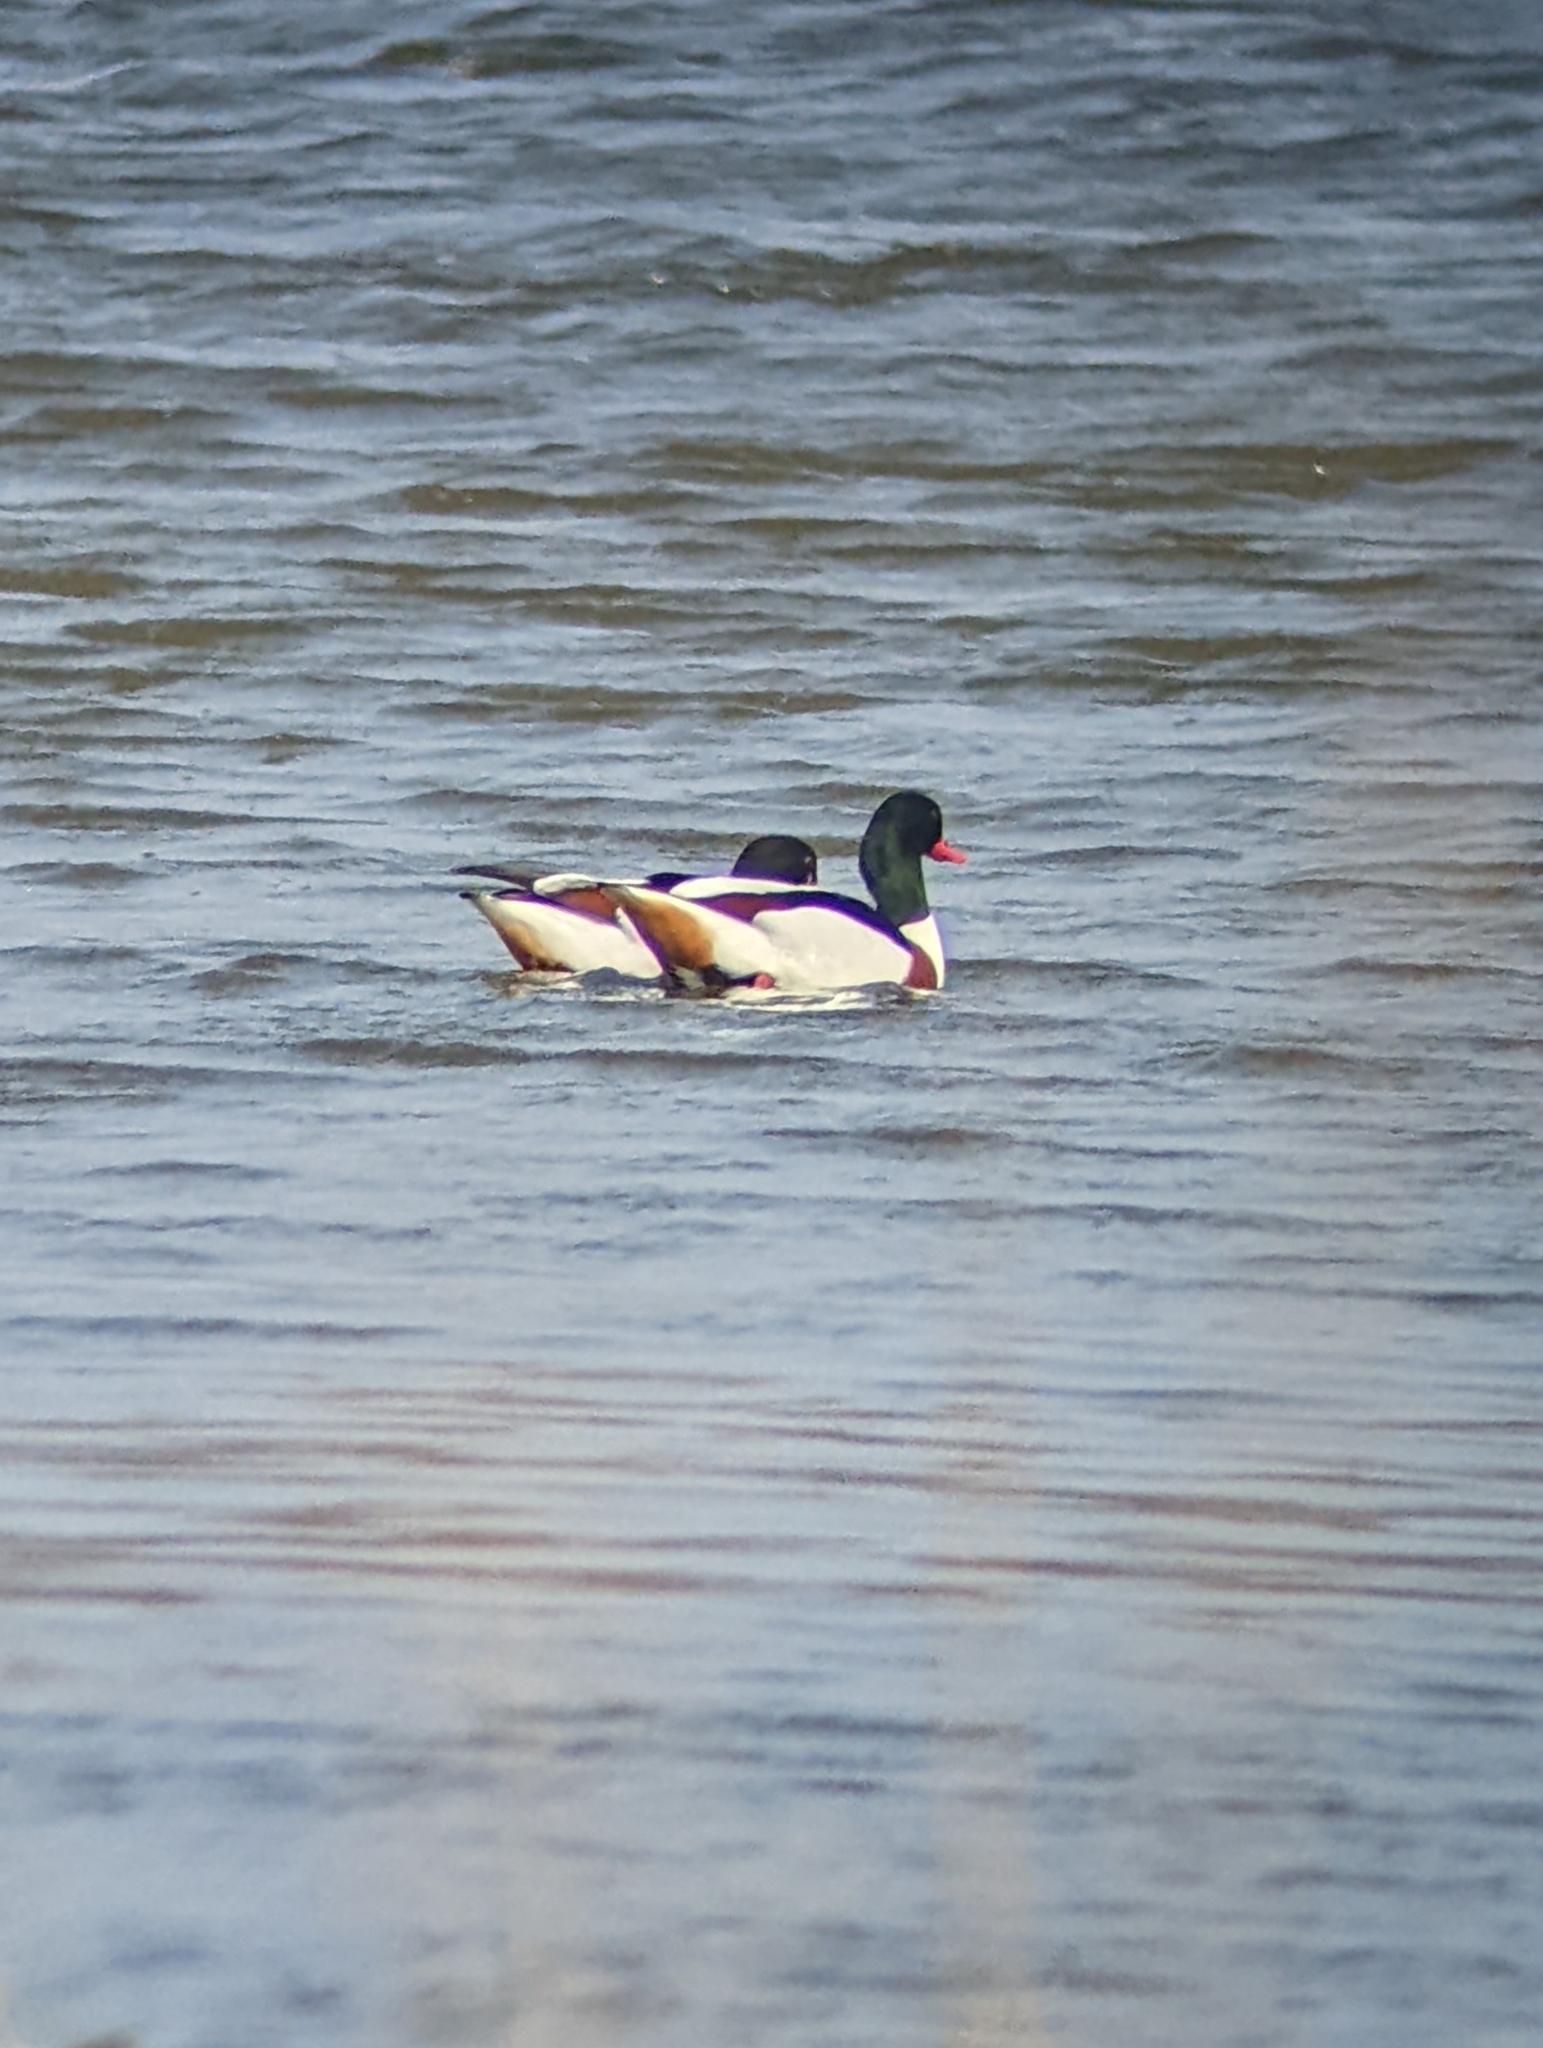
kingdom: Animalia
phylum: Chordata
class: Aves
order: Anseriformes
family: Anatidae
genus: Tadorna
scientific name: Tadorna tadorna
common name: Common shelduck
